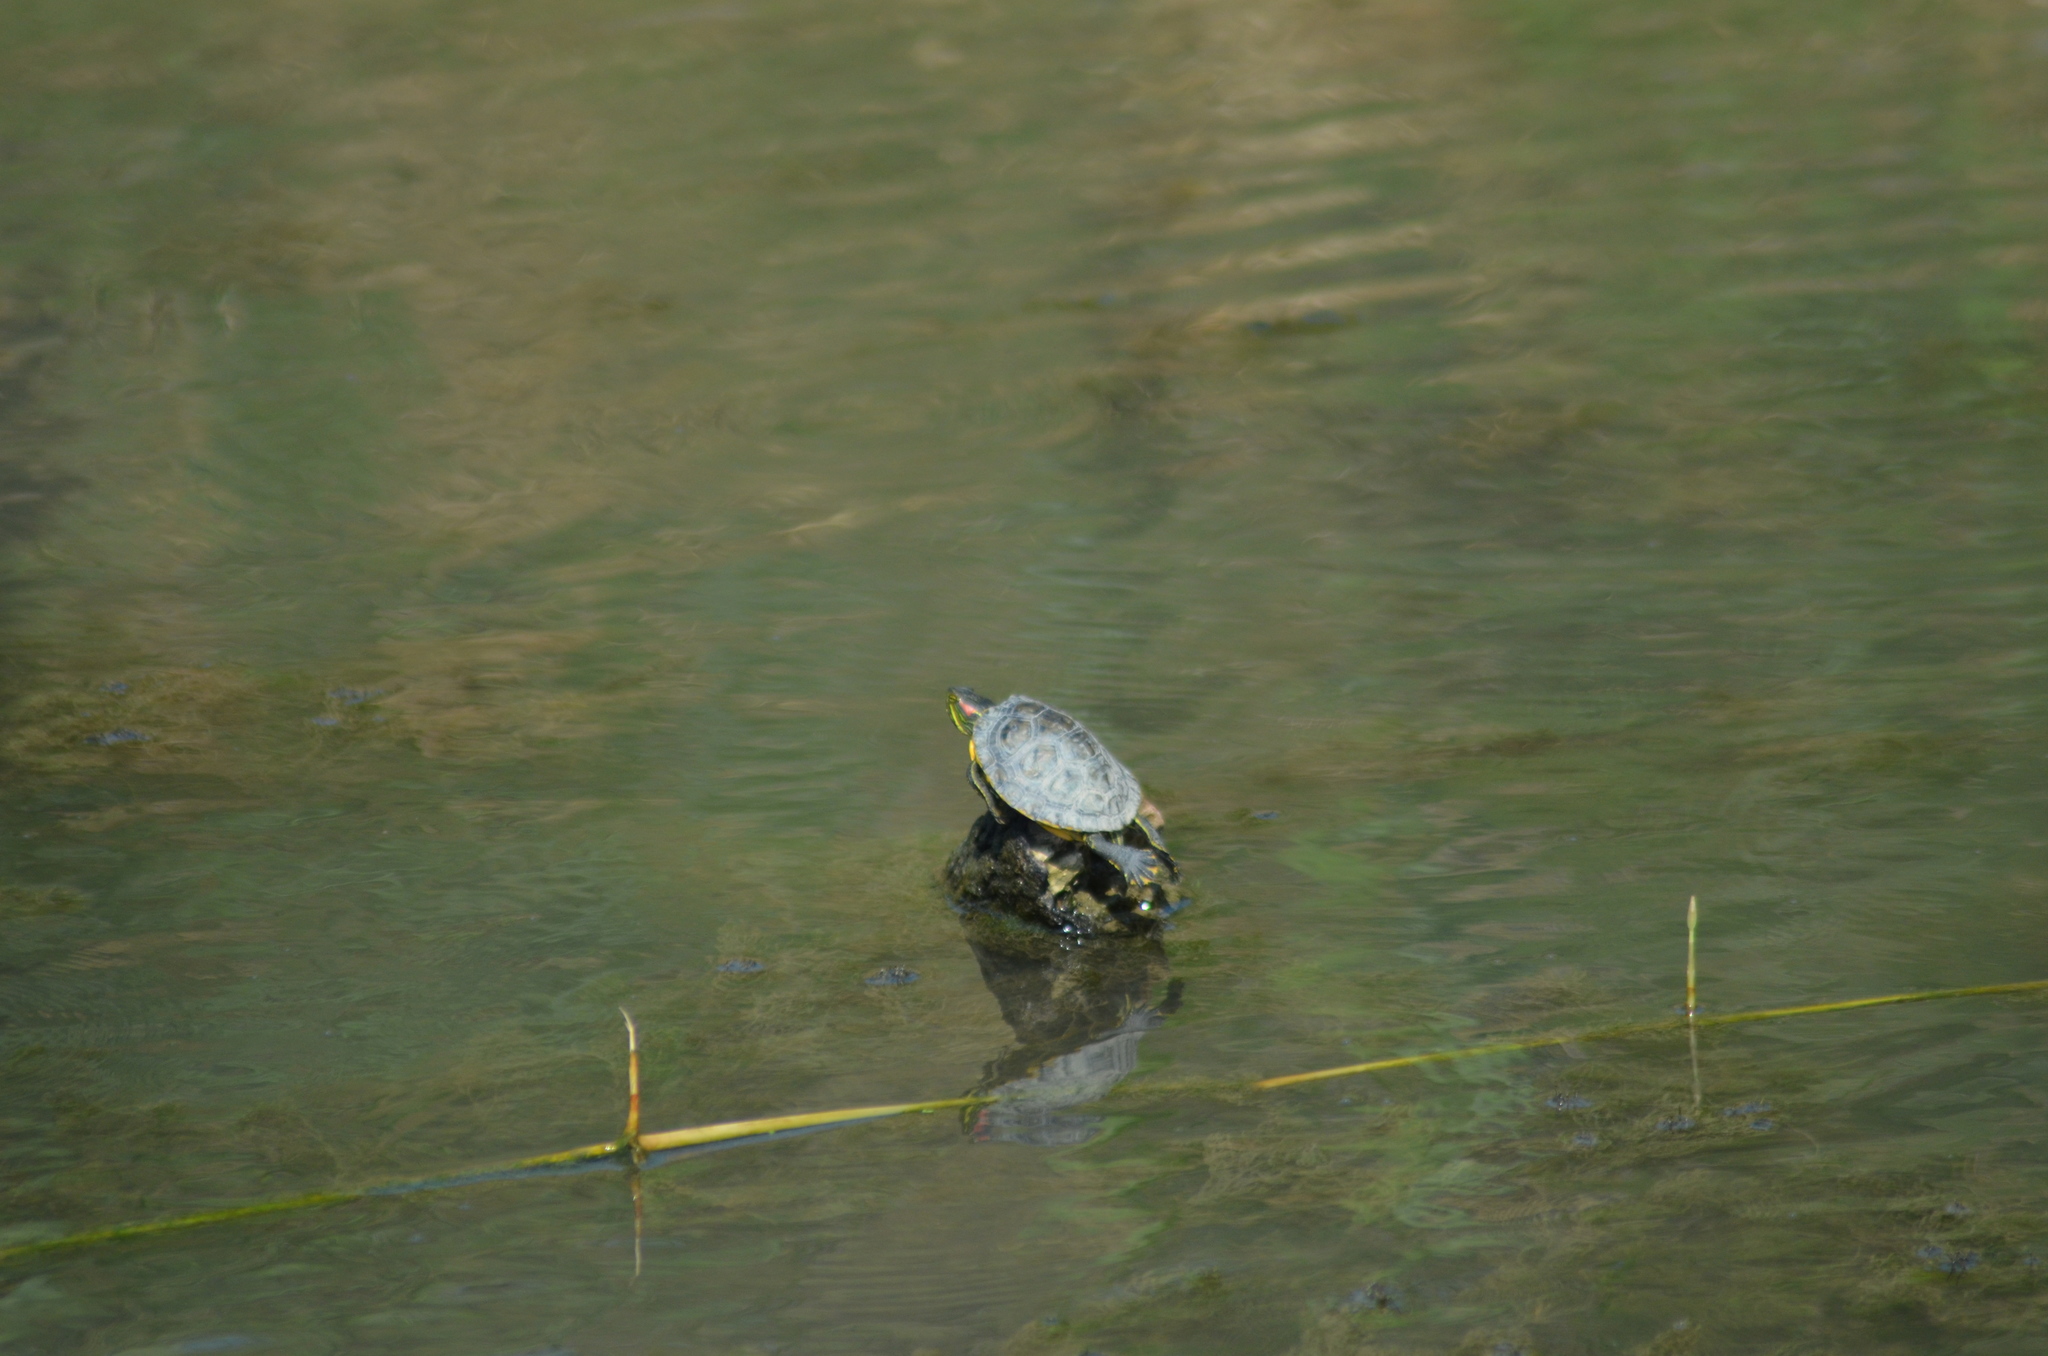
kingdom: Animalia
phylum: Chordata
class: Testudines
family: Emydidae
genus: Trachemys
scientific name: Trachemys scripta
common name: Slider
